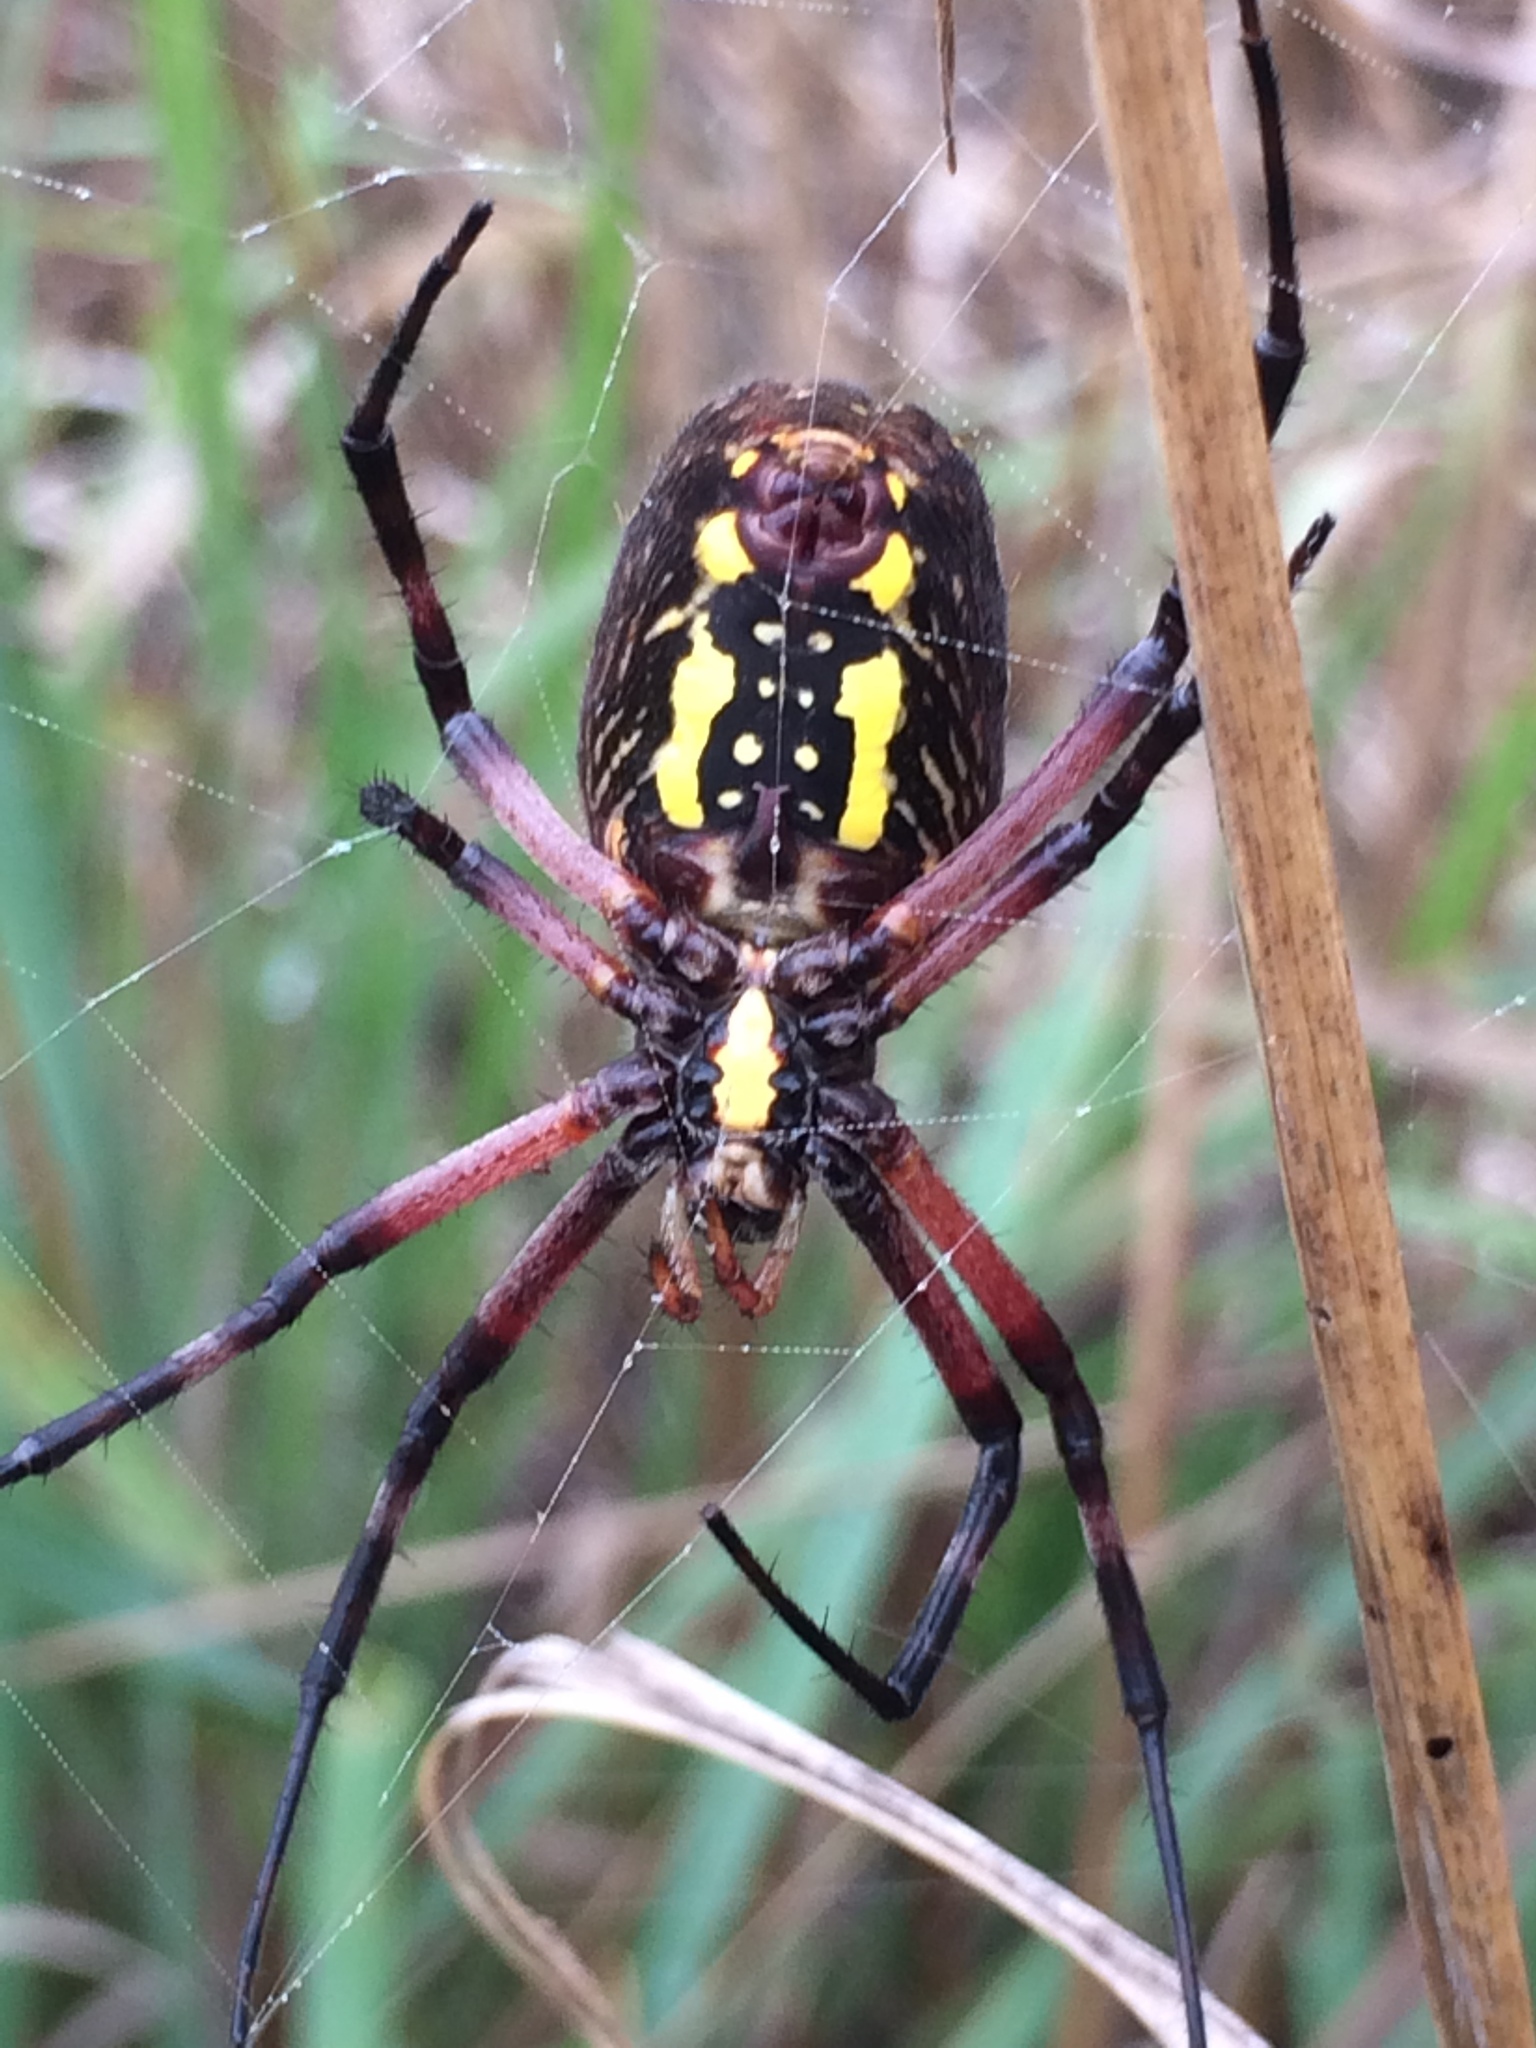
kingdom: Animalia
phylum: Arthropoda
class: Arachnida
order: Araneae
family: Araneidae
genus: Argiope
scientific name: Argiope aurantia
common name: Orb weavers
